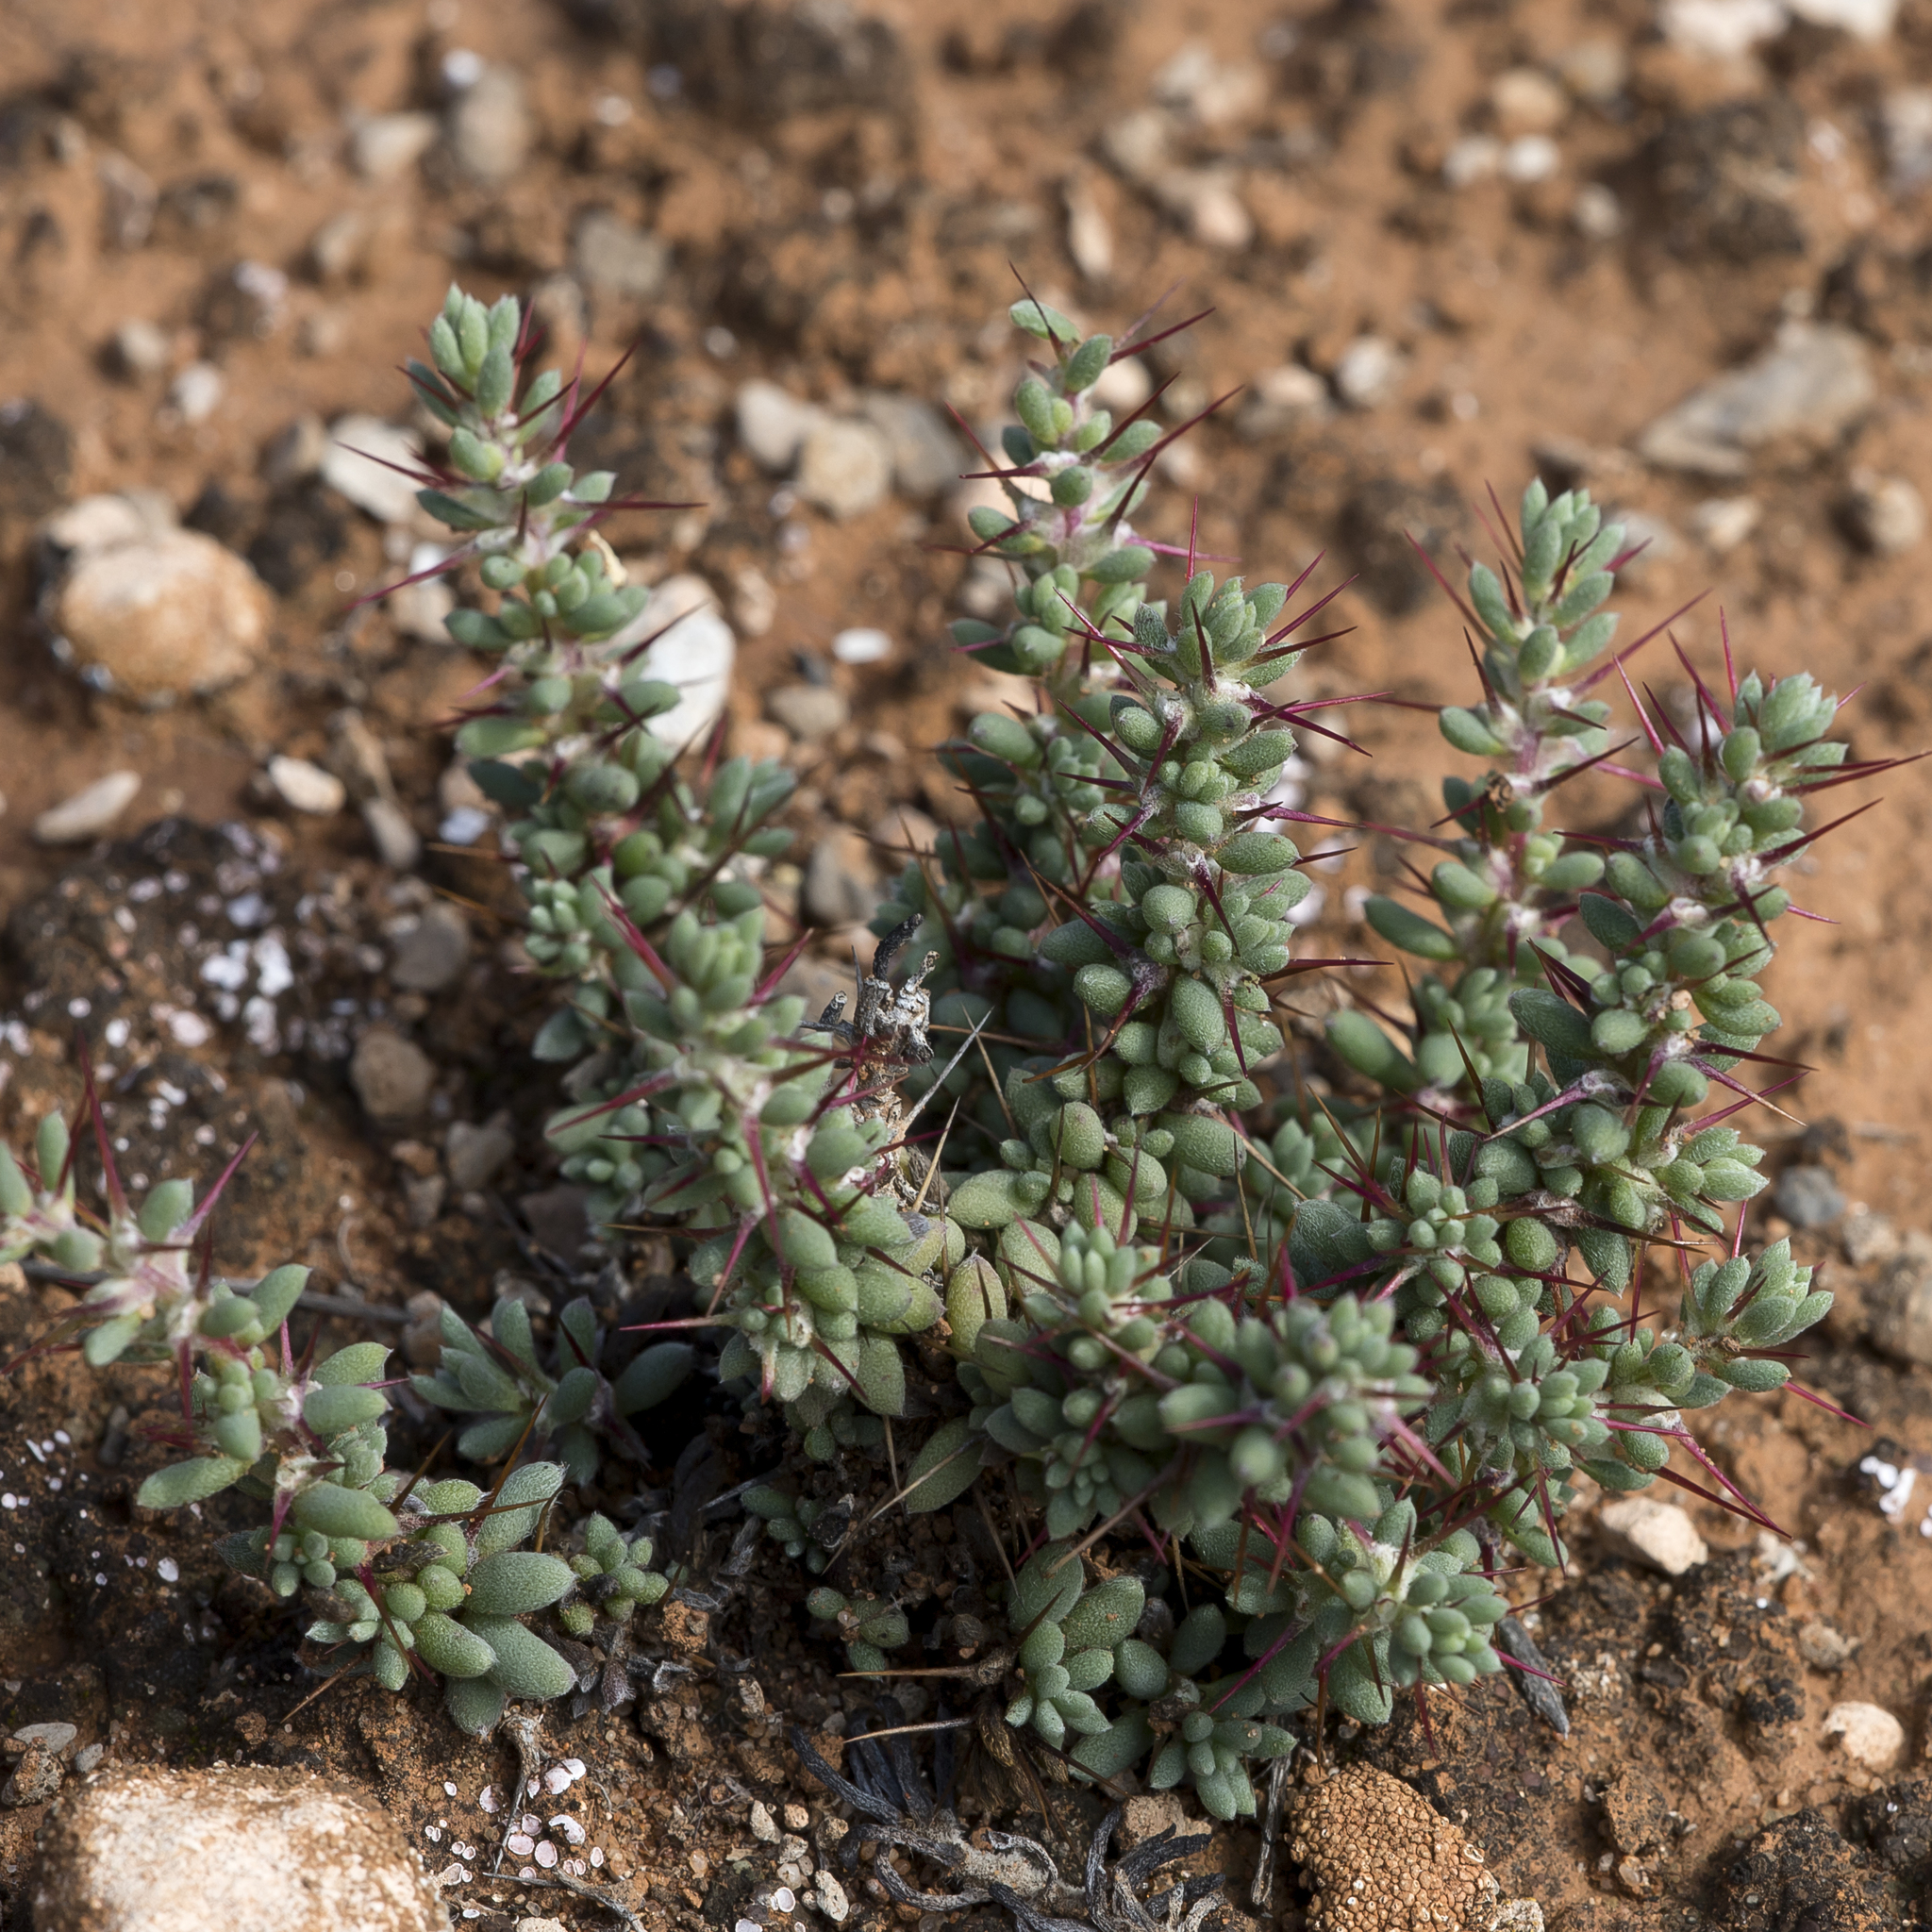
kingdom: Plantae
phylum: Tracheophyta
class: Magnoliopsida
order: Caryophyllales
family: Amaranthaceae
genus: Sclerolaena
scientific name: Sclerolaena brevifolia
